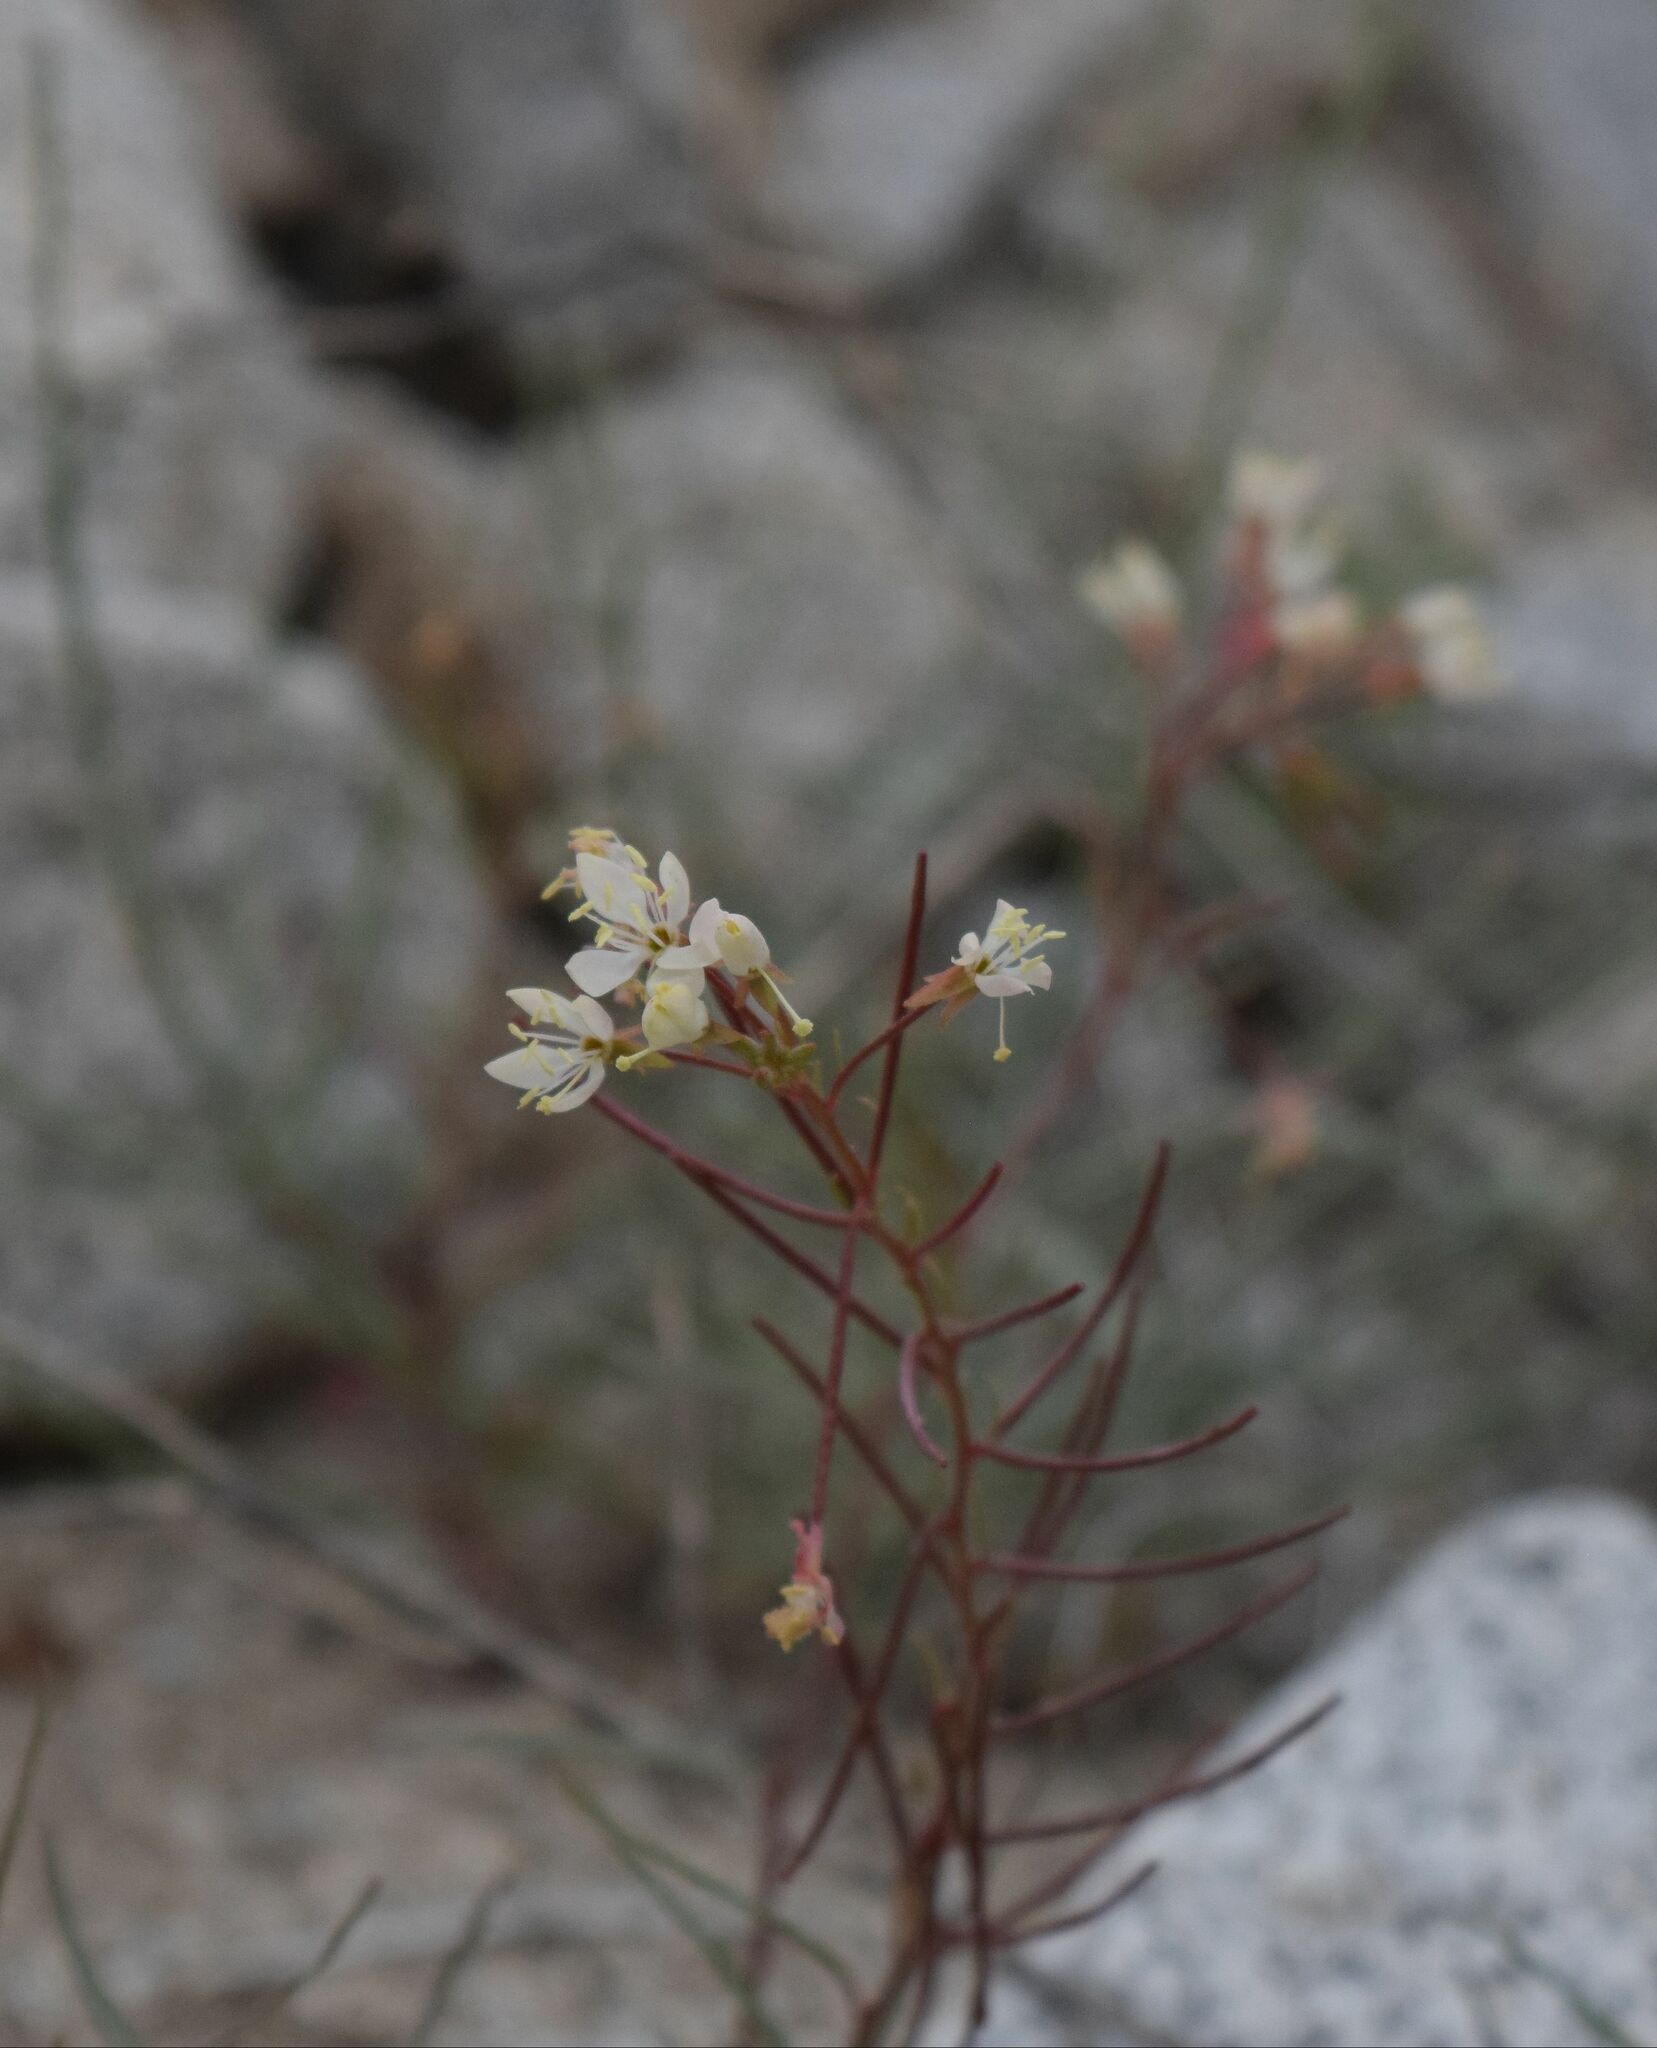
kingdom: Plantae
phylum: Tracheophyta
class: Magnoliopsida
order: Myrtales
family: Onagraceae
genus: Eremothera
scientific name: Eremothera refracta
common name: Narrowleaf suncup
